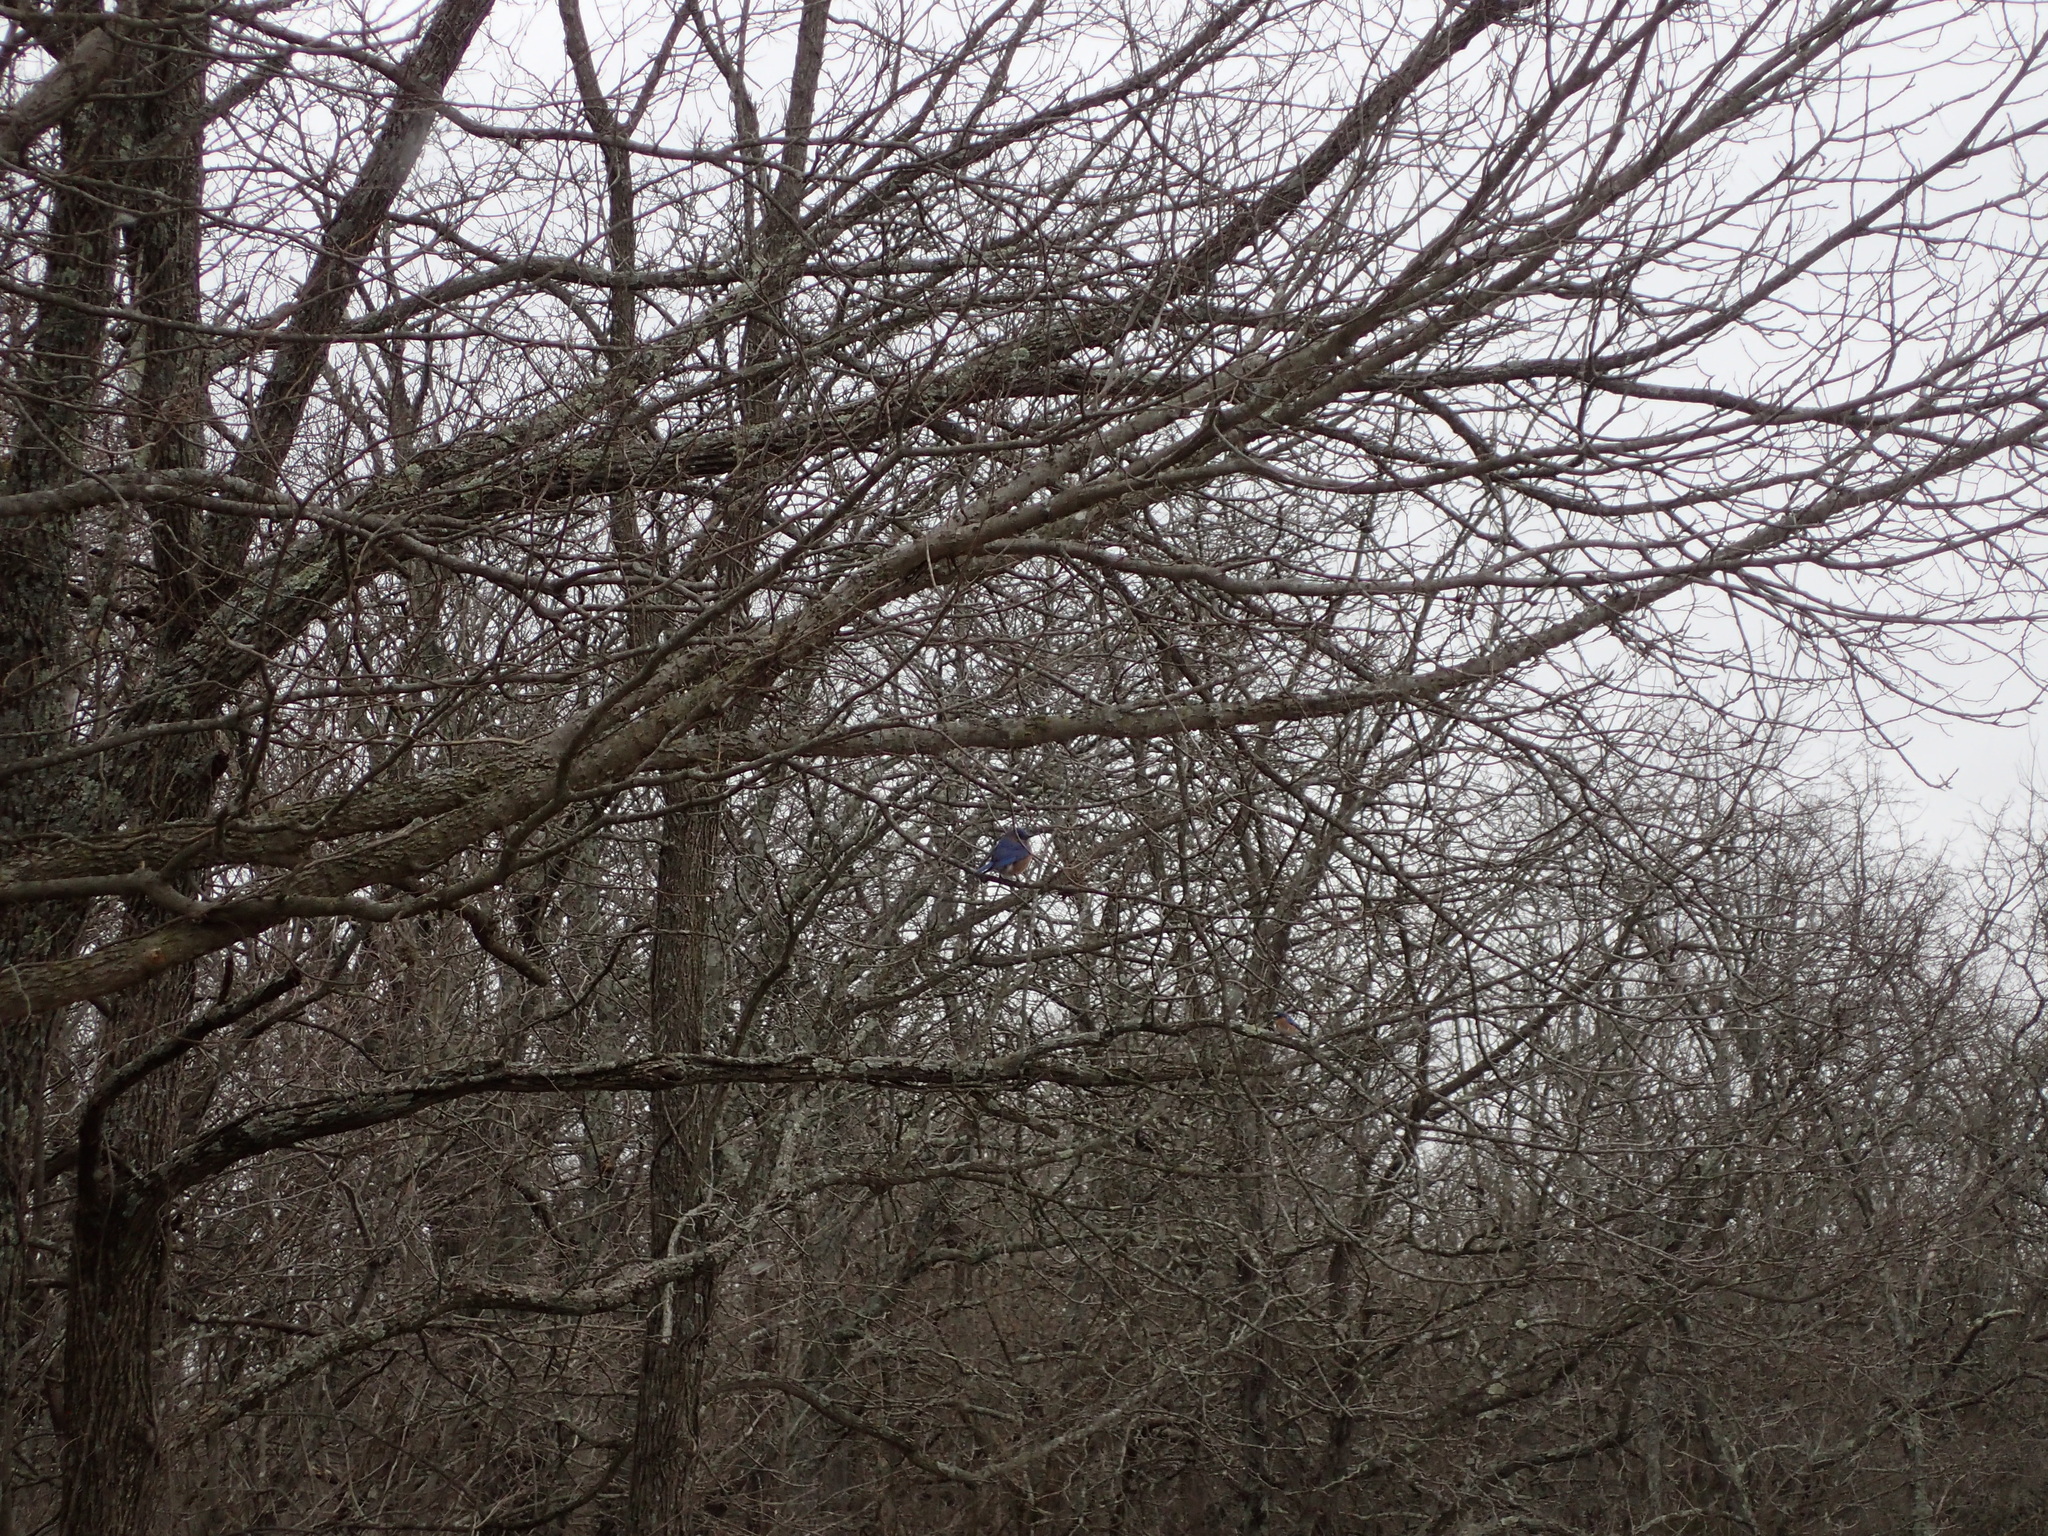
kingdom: Animalia
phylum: Chordata
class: Aves
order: Passeriformes
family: Turdidae
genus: Sialia
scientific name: Sialia sialis
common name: Eastern bluebird
